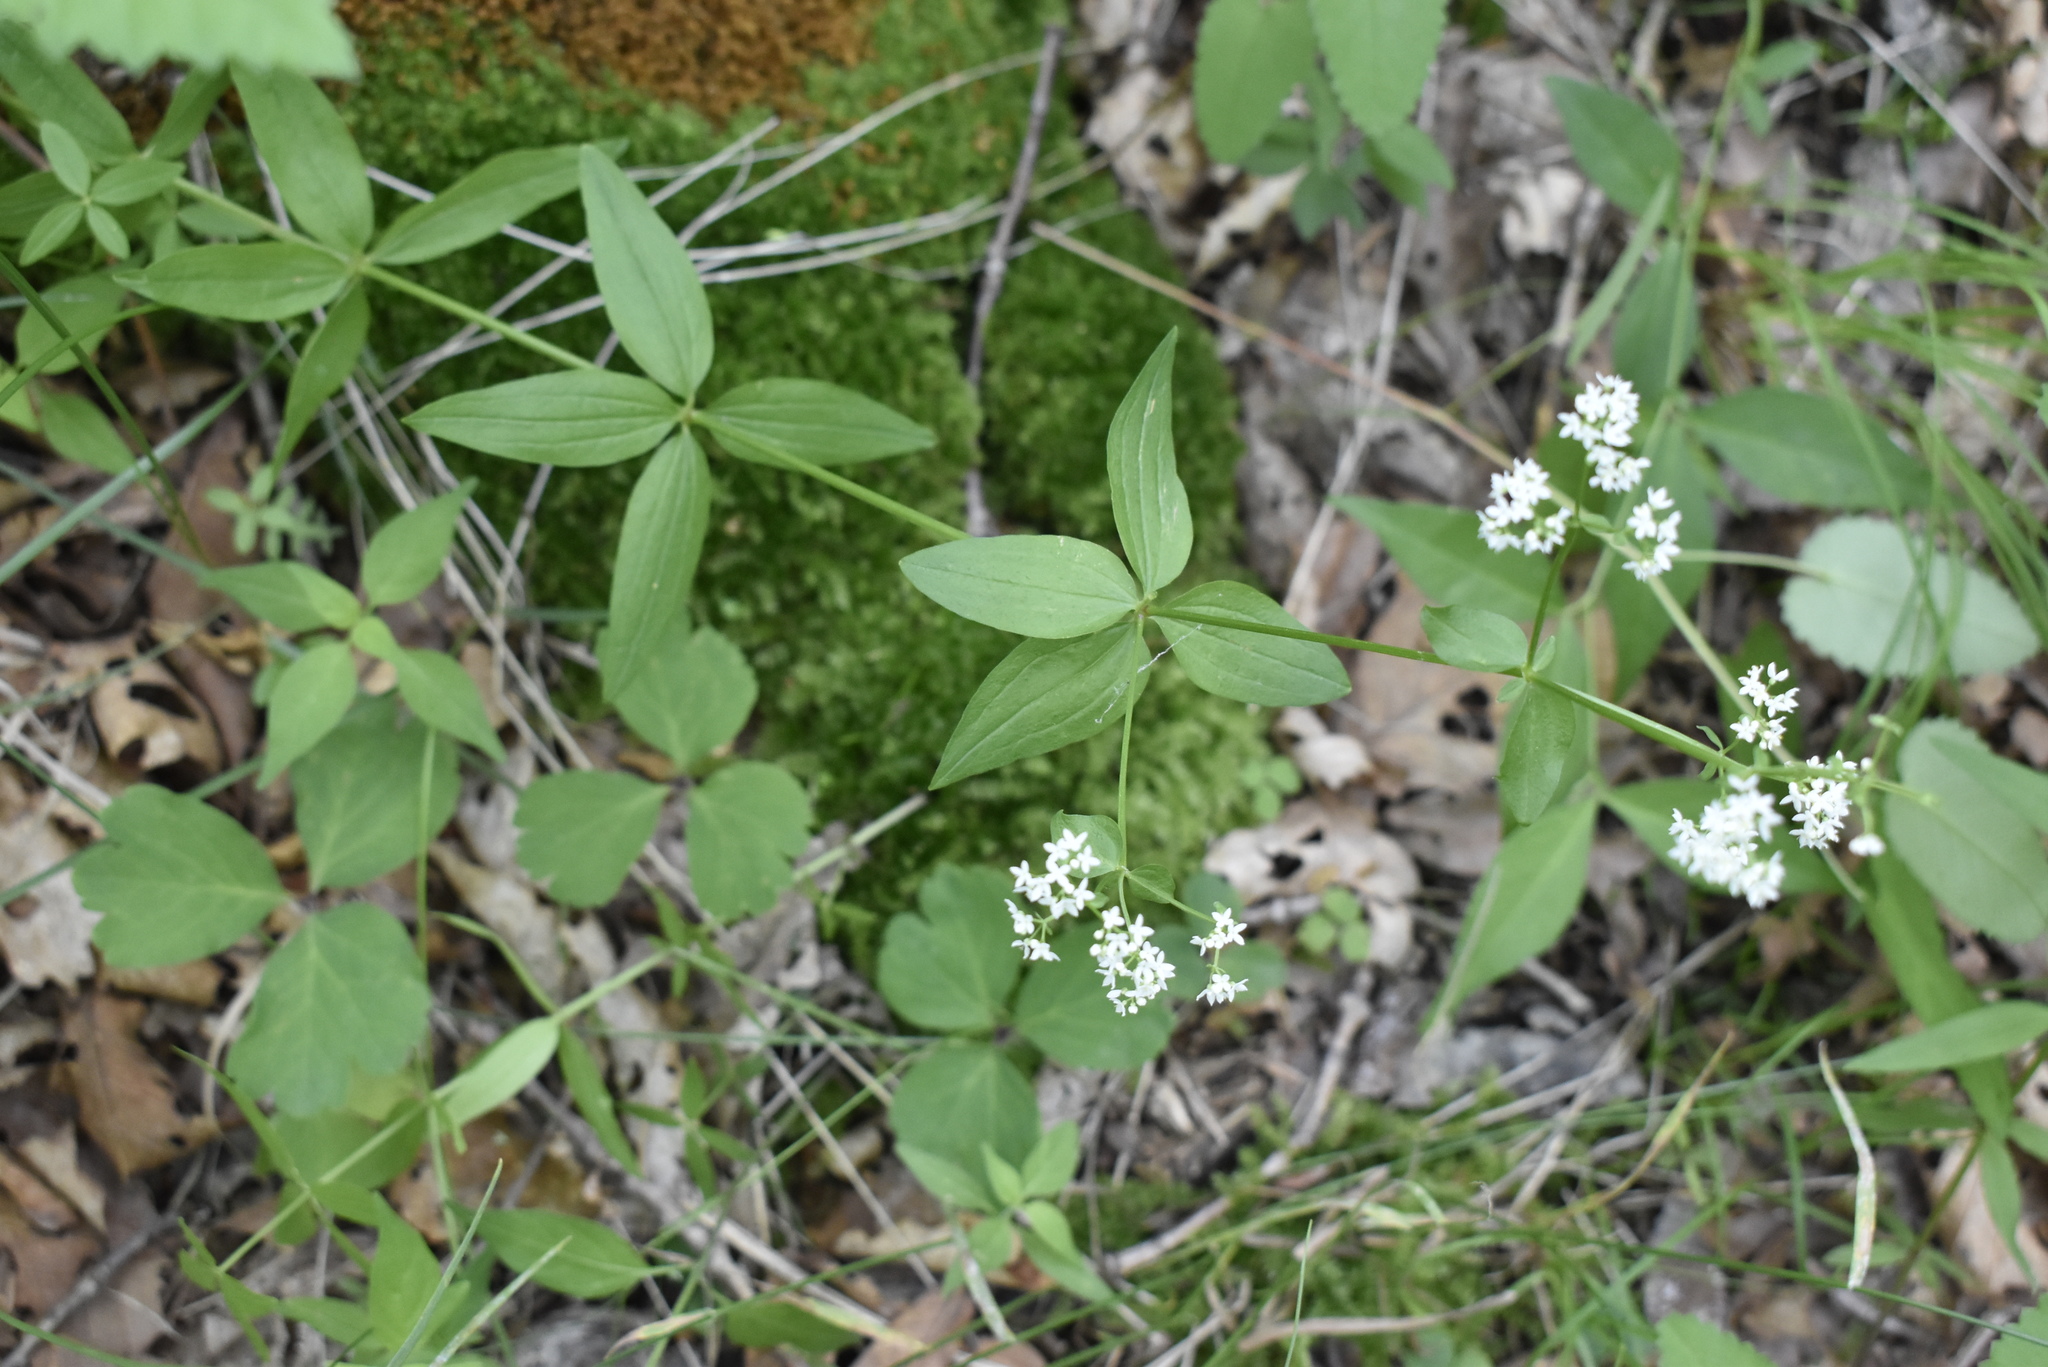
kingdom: Plantae
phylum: Tracheophyta
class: Magnoliopsida
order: Gentianales
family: Rubiaceae
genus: Galium
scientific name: Galium boreale
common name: Northern bedstraw
